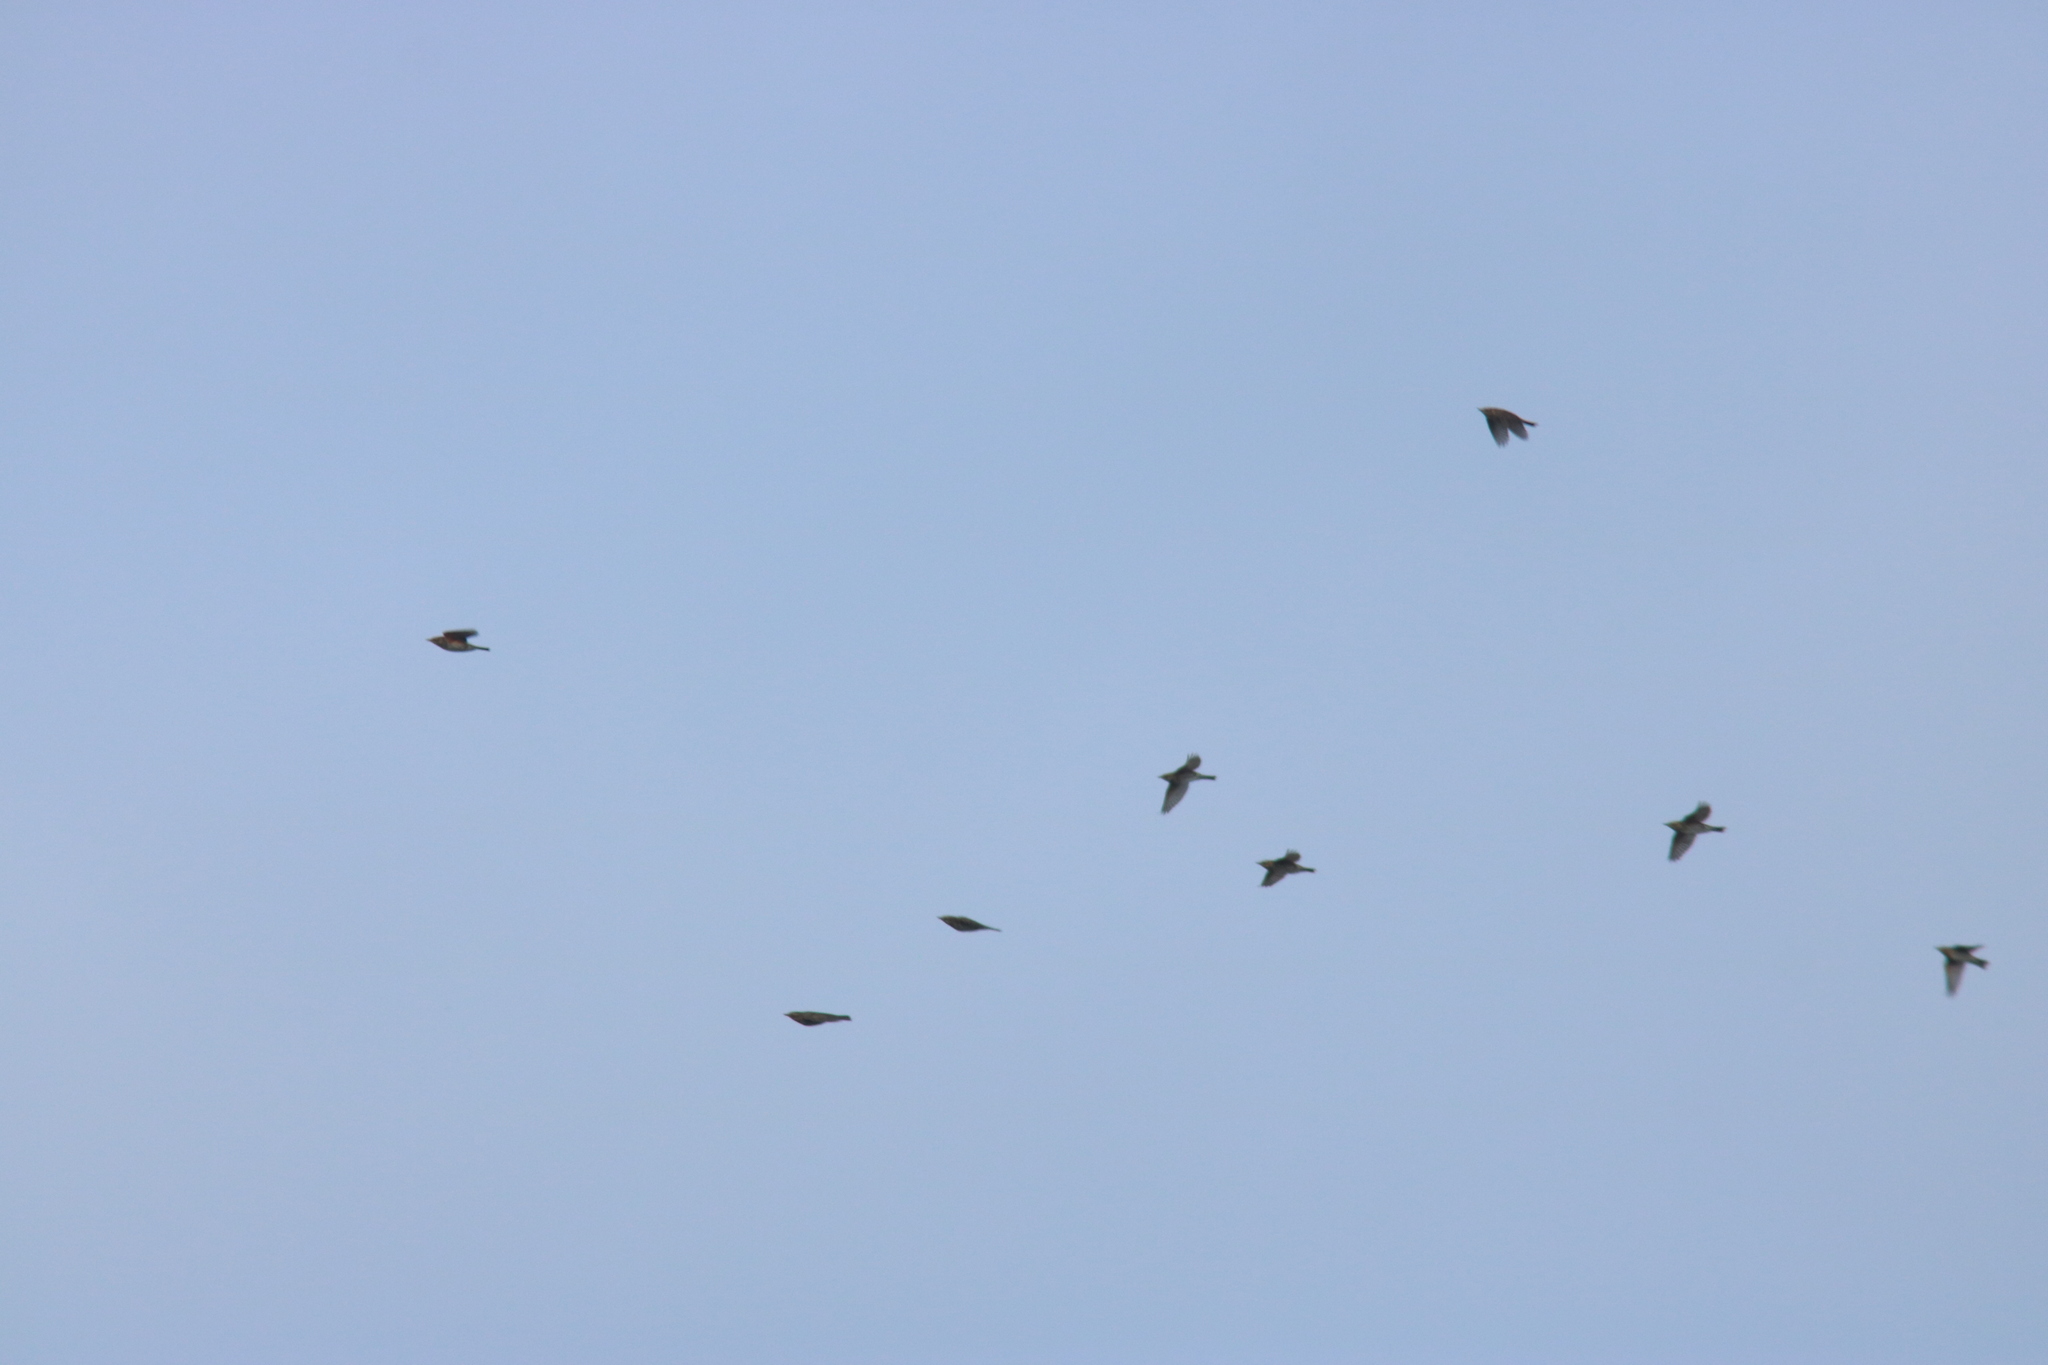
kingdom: Animalia
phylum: Chordata
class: Aves
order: Passeriformes
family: Turdidae
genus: Turdus
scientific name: Turdus iliacus
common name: Redwing
